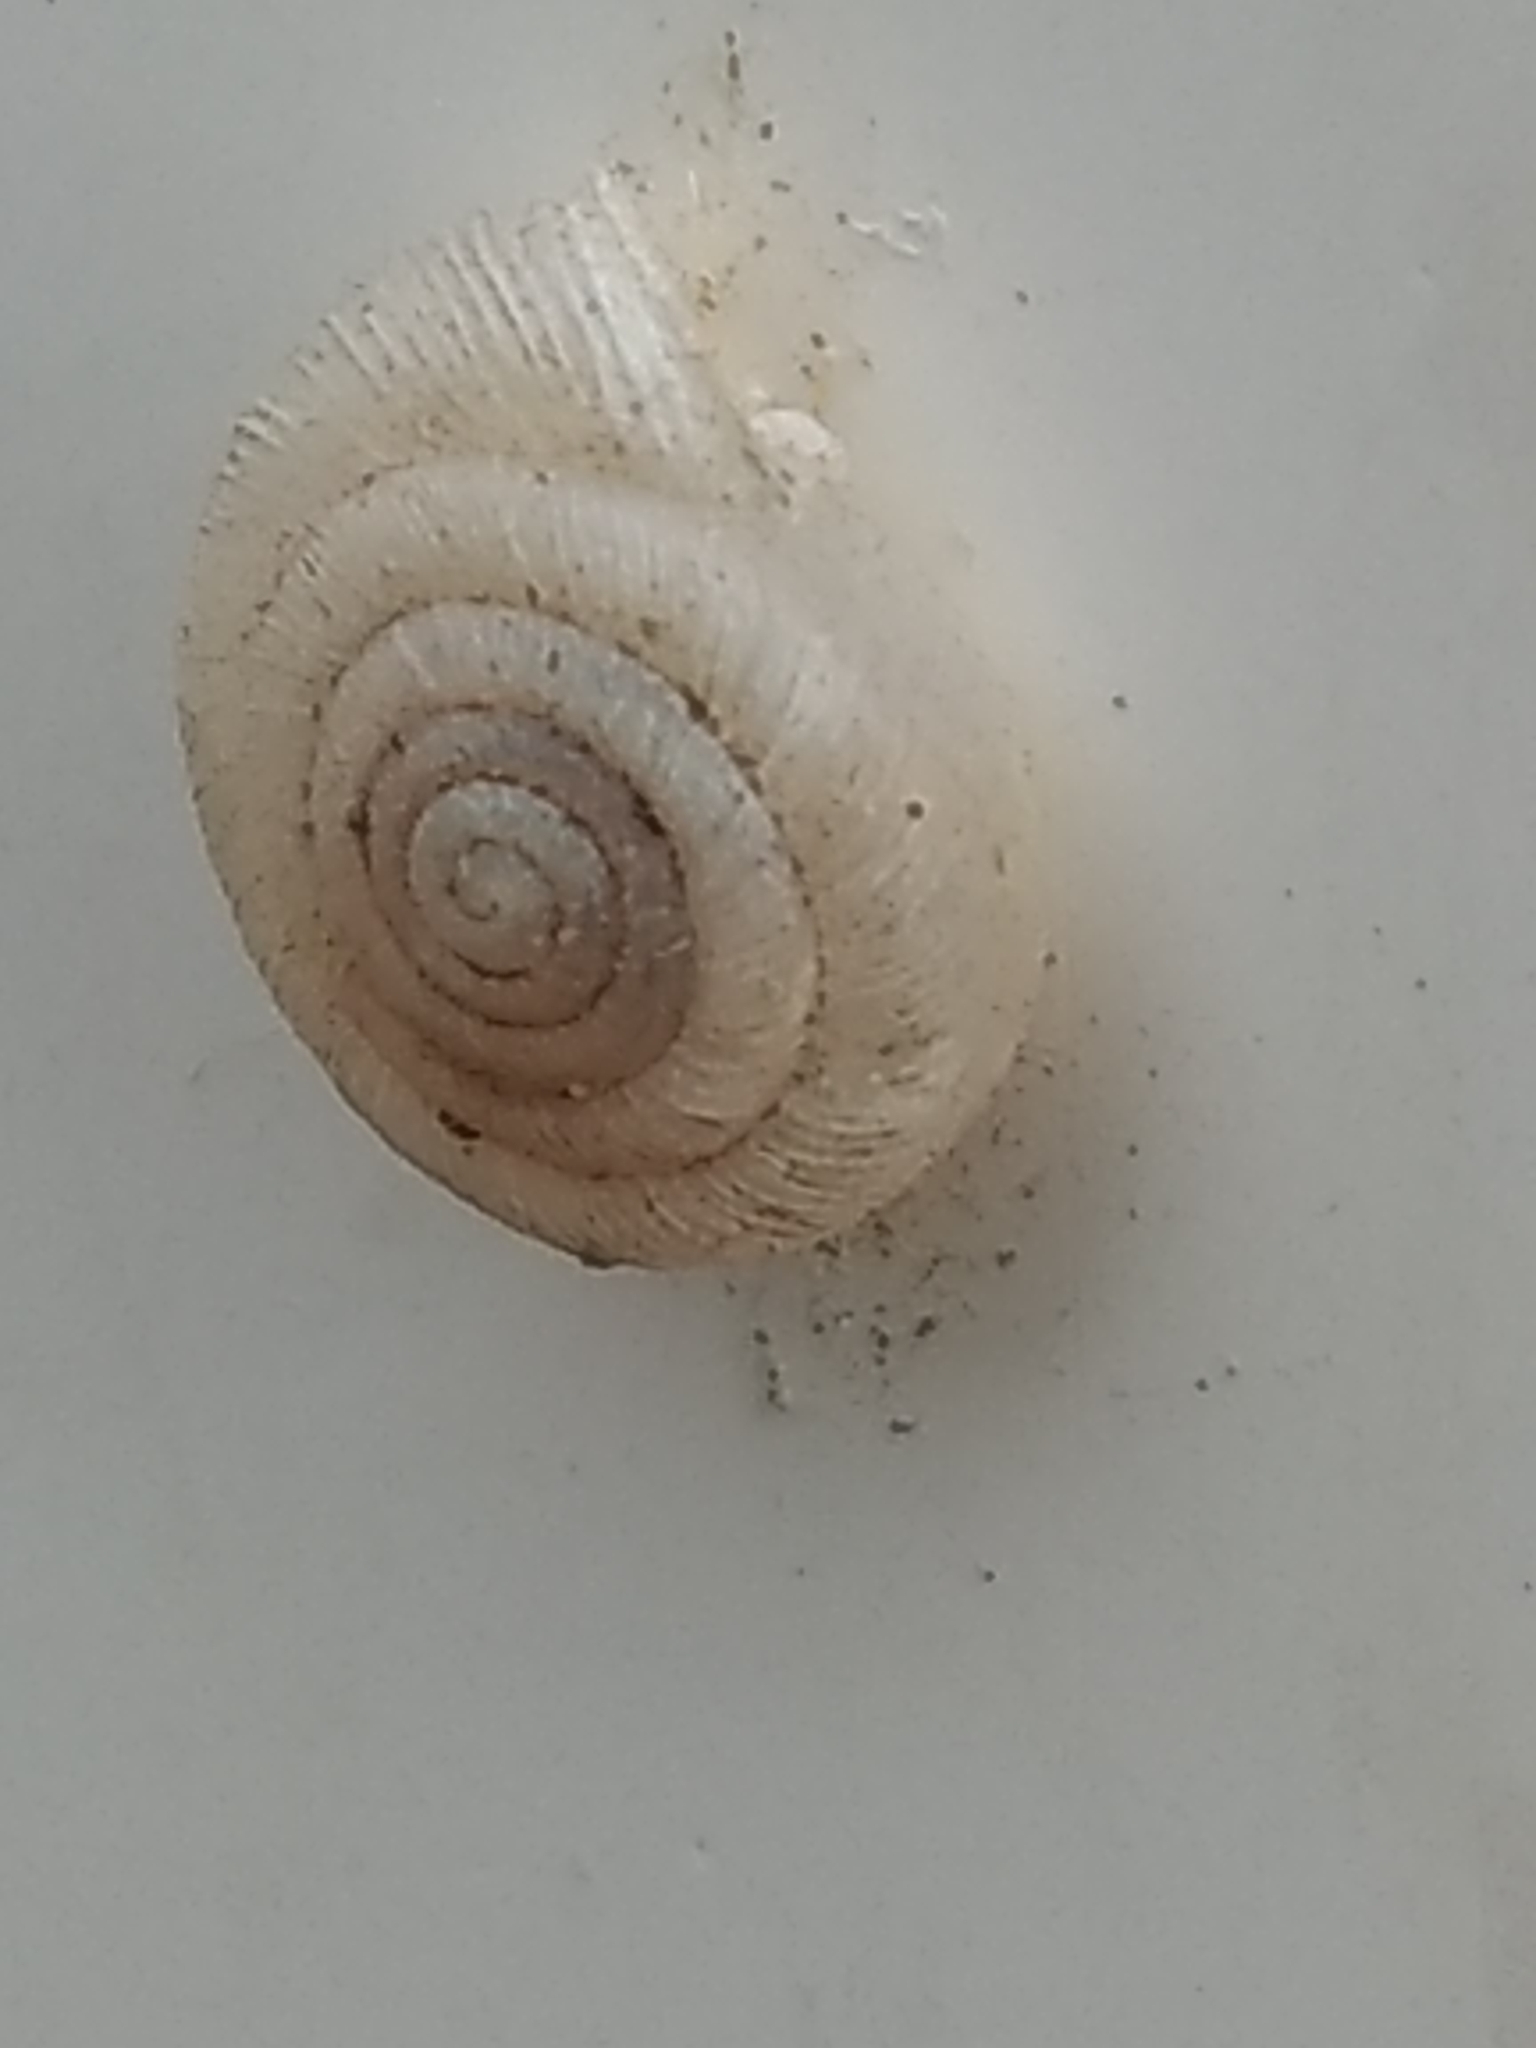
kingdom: Animalia
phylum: Mollusca
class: Gastropoda
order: Stylommatophora
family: Polygyridae
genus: Polygyra
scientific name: Polygyra cereolus
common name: Southern flatcone snail
